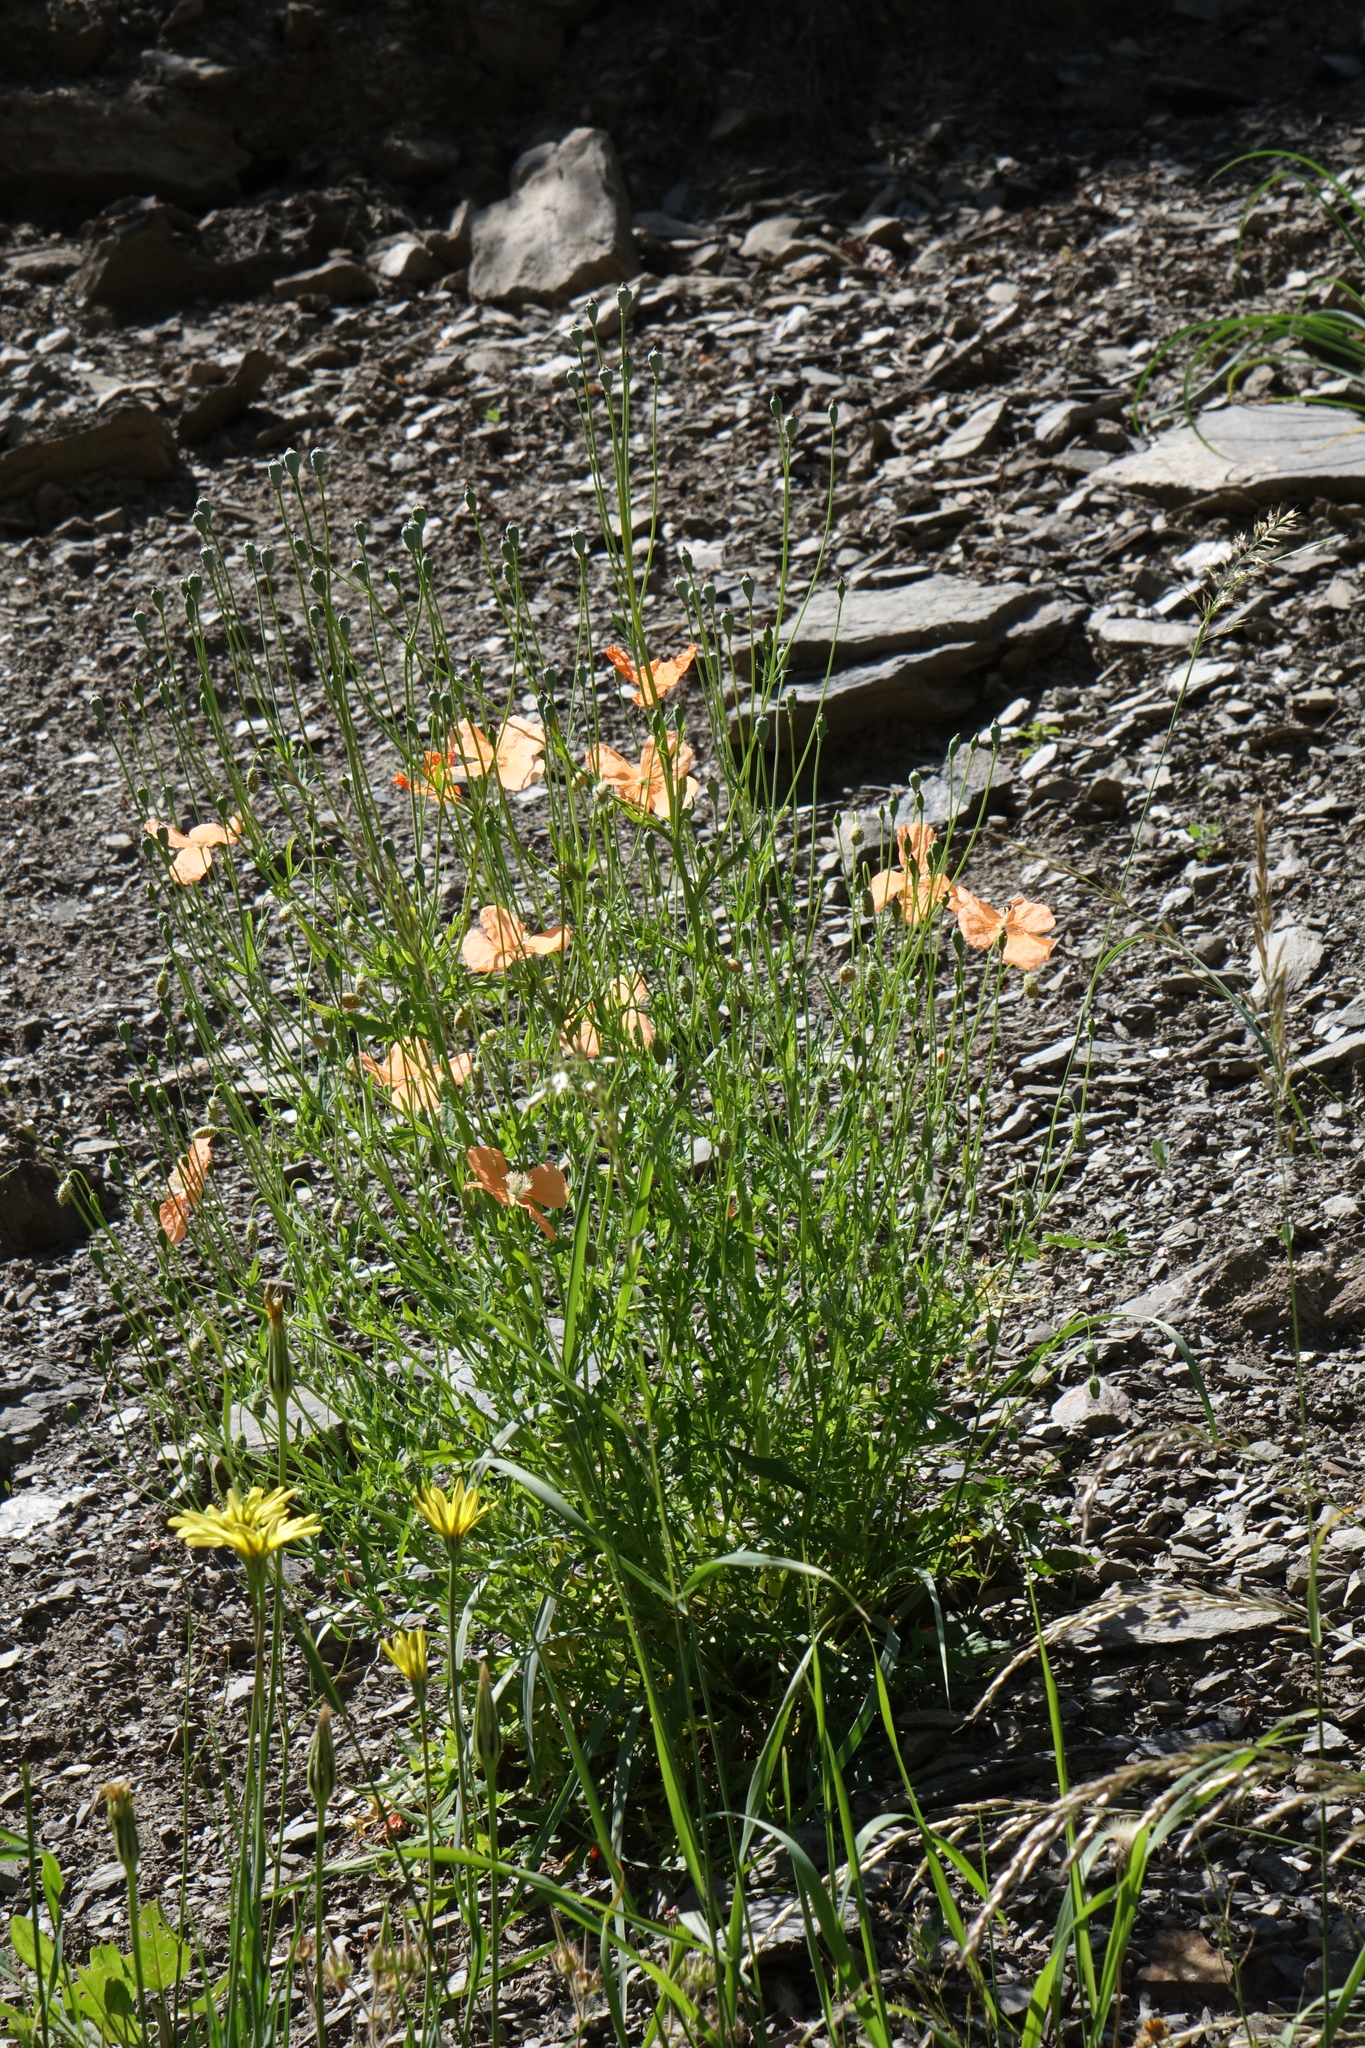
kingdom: Plantae
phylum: Tracheophyta
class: Magnoliopsida
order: Ranunculales
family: Papaveraceae
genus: Papaver
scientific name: Papaver armeniacum
